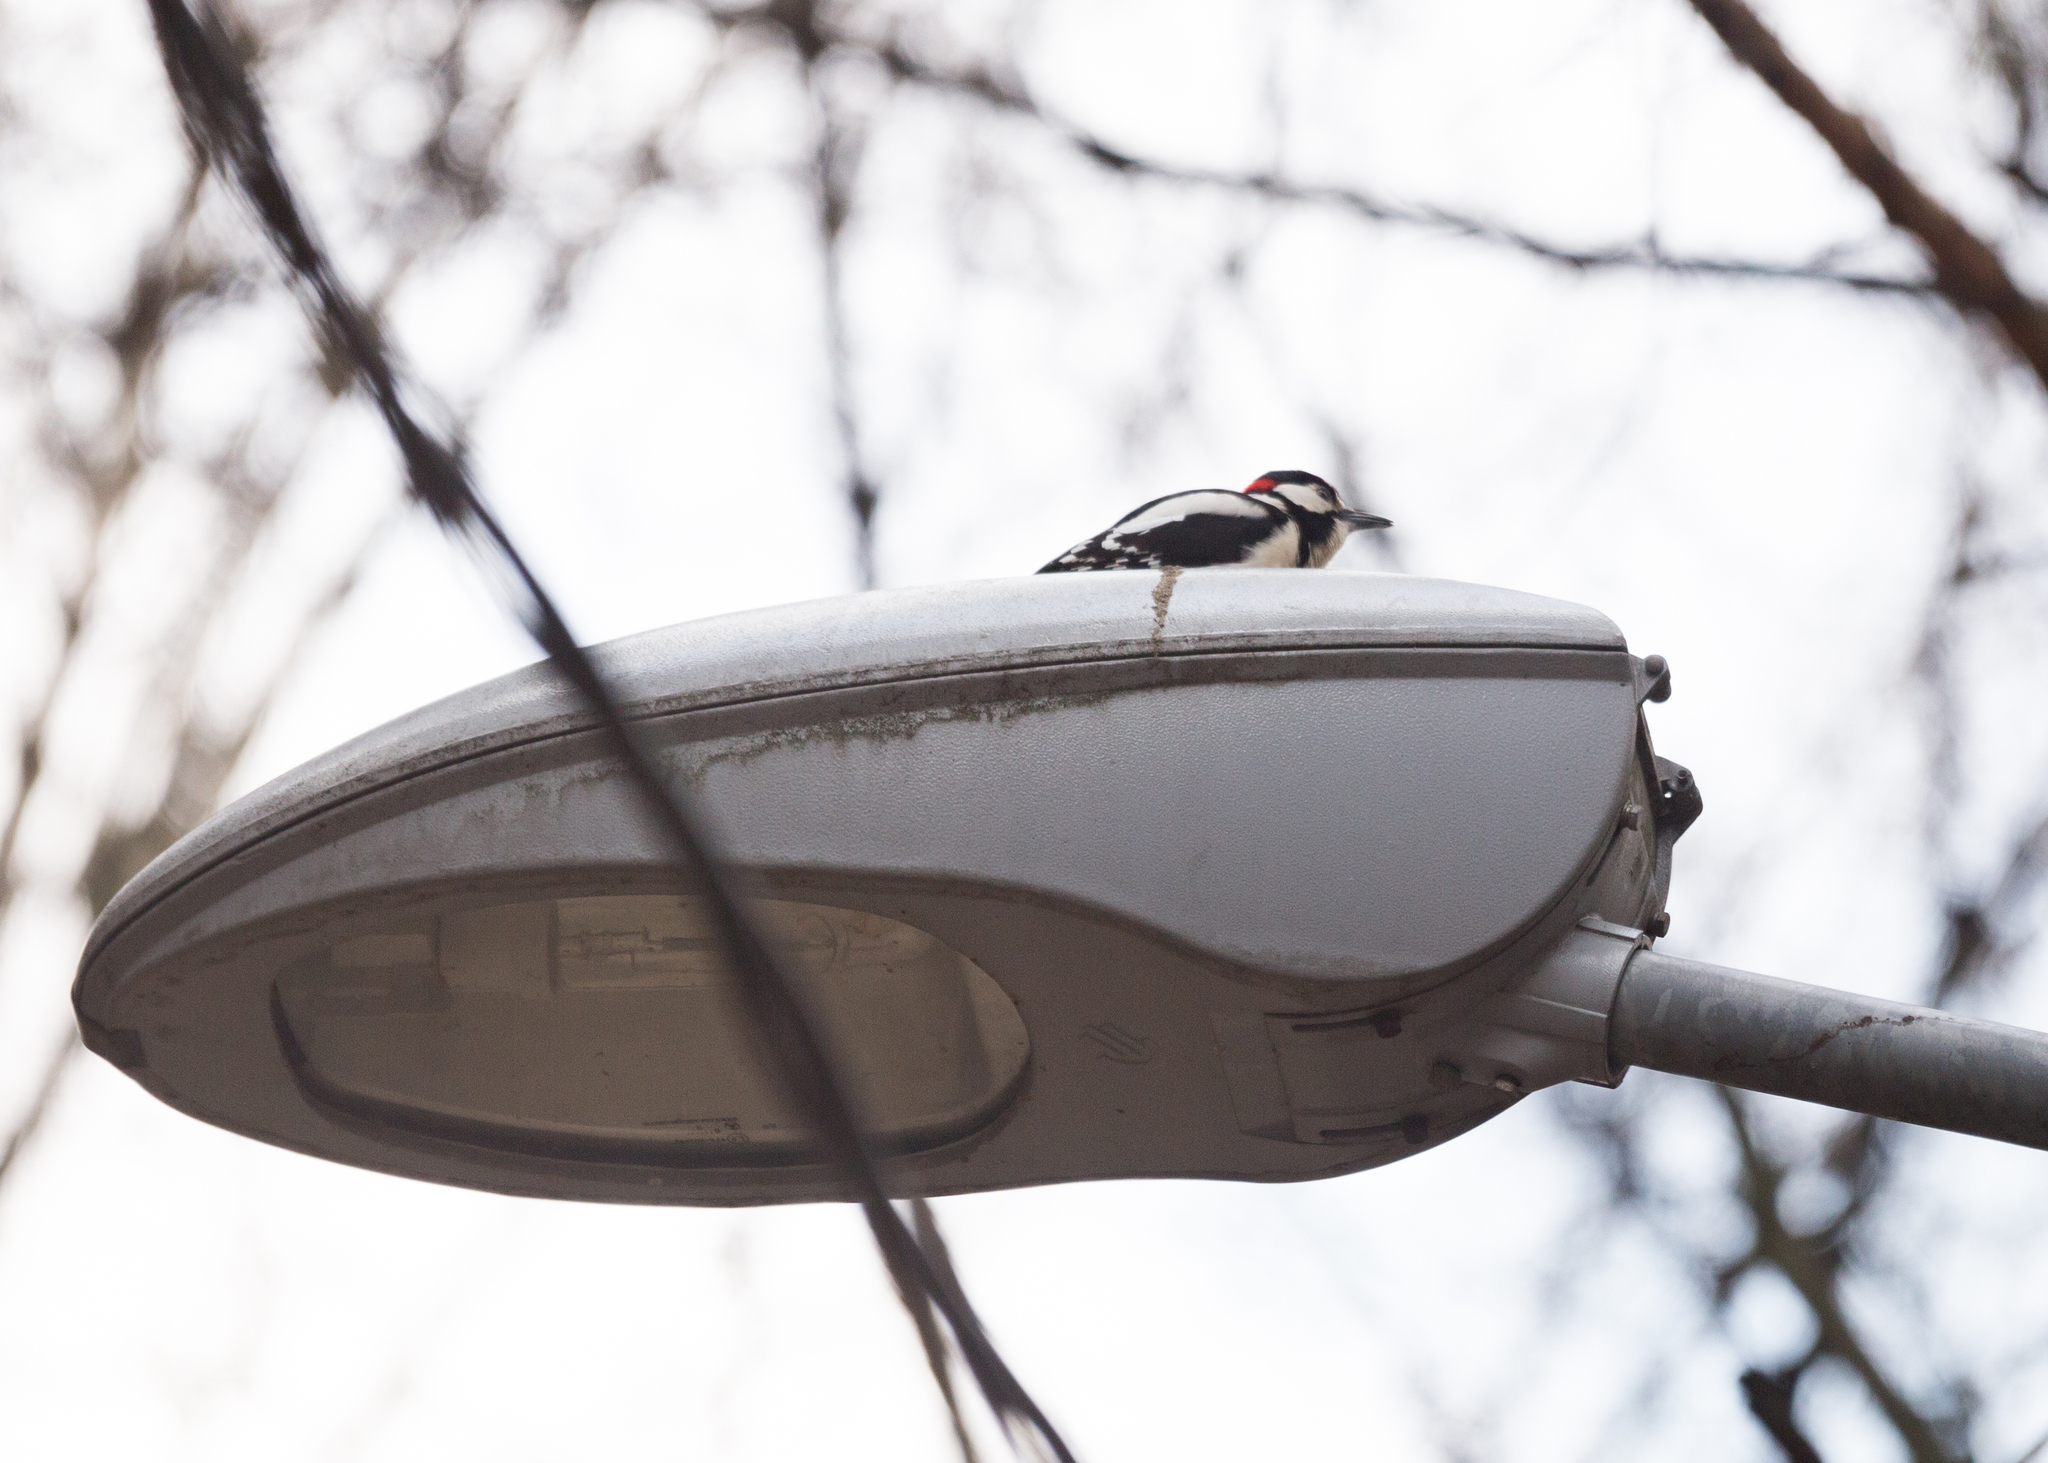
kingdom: Animalia
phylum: Chordata
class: Aves
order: Piciformes
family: Picidae
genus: Dendrocopos
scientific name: Dendrocopos major
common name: Great spotted woodpecker
